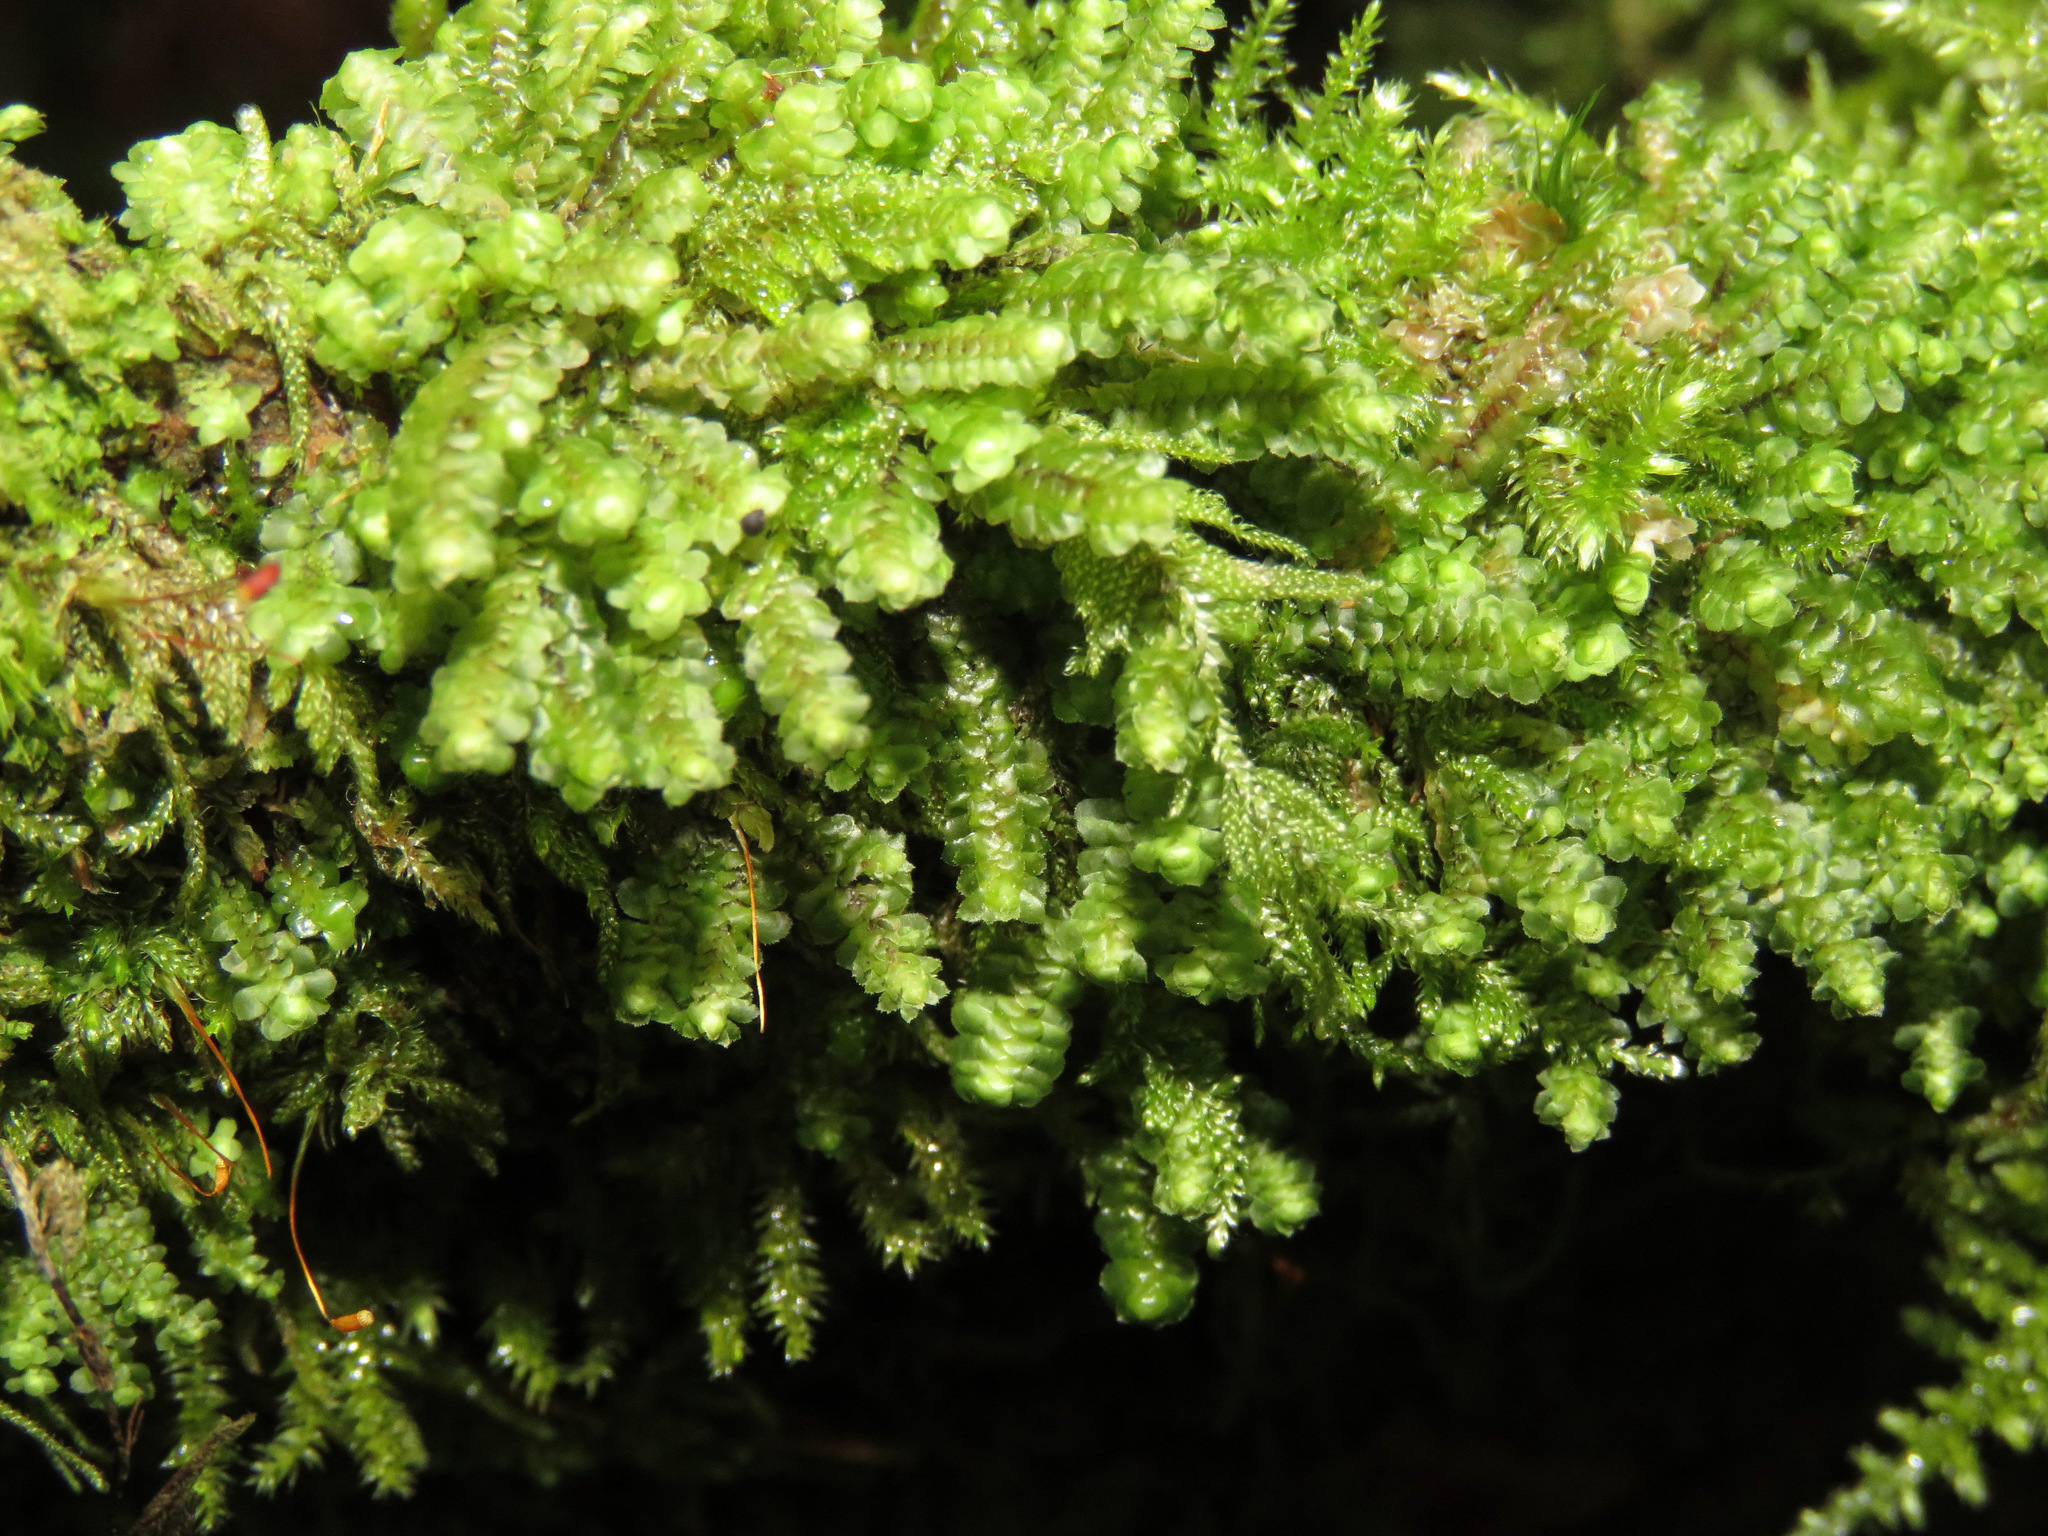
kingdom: Plantae
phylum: Marchantiophyta
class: Jungermanniopsida
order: Jungermanniales
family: Scapaniaceae
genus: Scapania
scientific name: Scapania bolanderi
